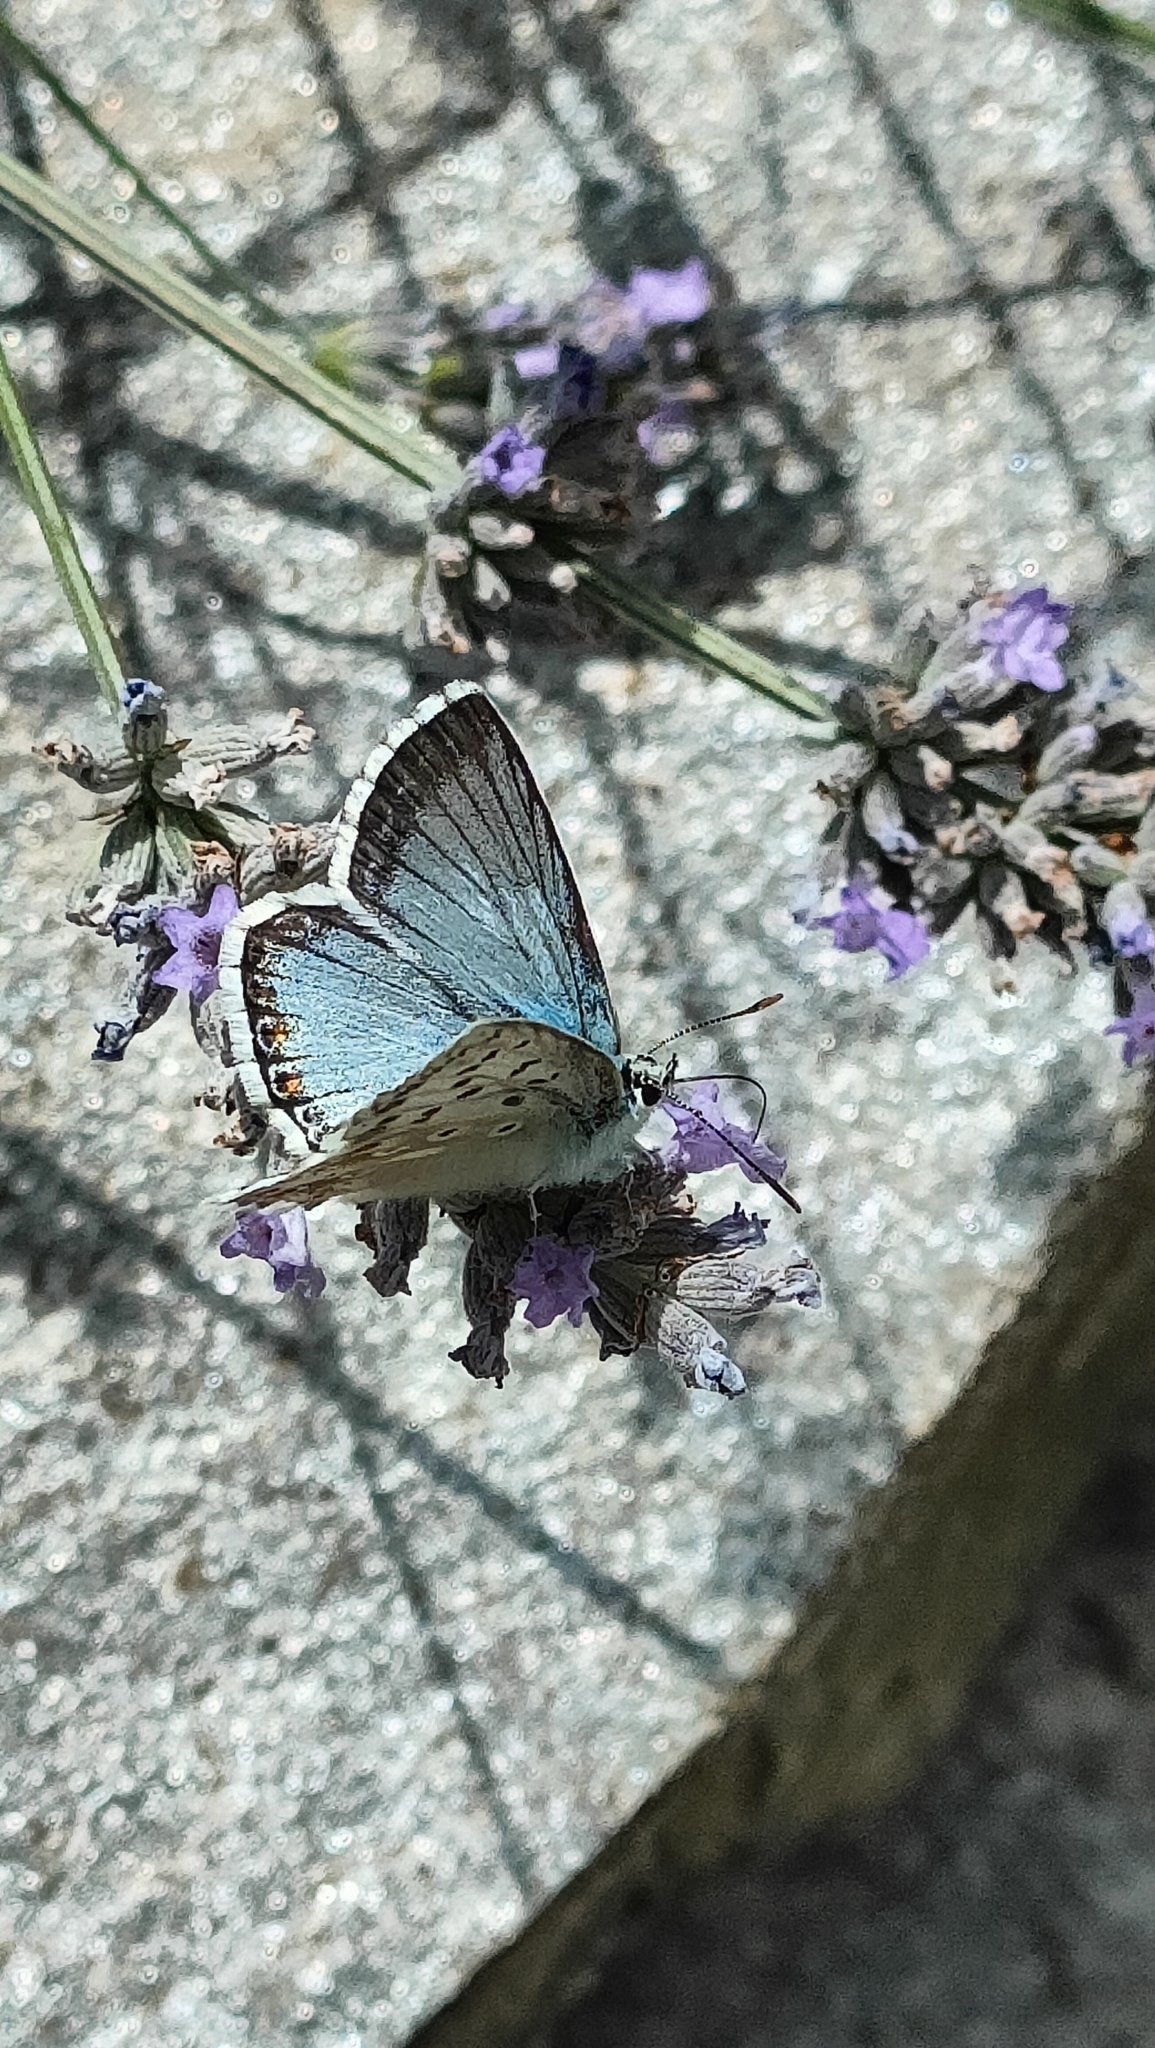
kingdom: Animalia
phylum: Arthropoda
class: Insecta
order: Lepidoptera
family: Lycaenidae
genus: Lysandra
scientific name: Lysandra coridon
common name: Chalkhill blue
